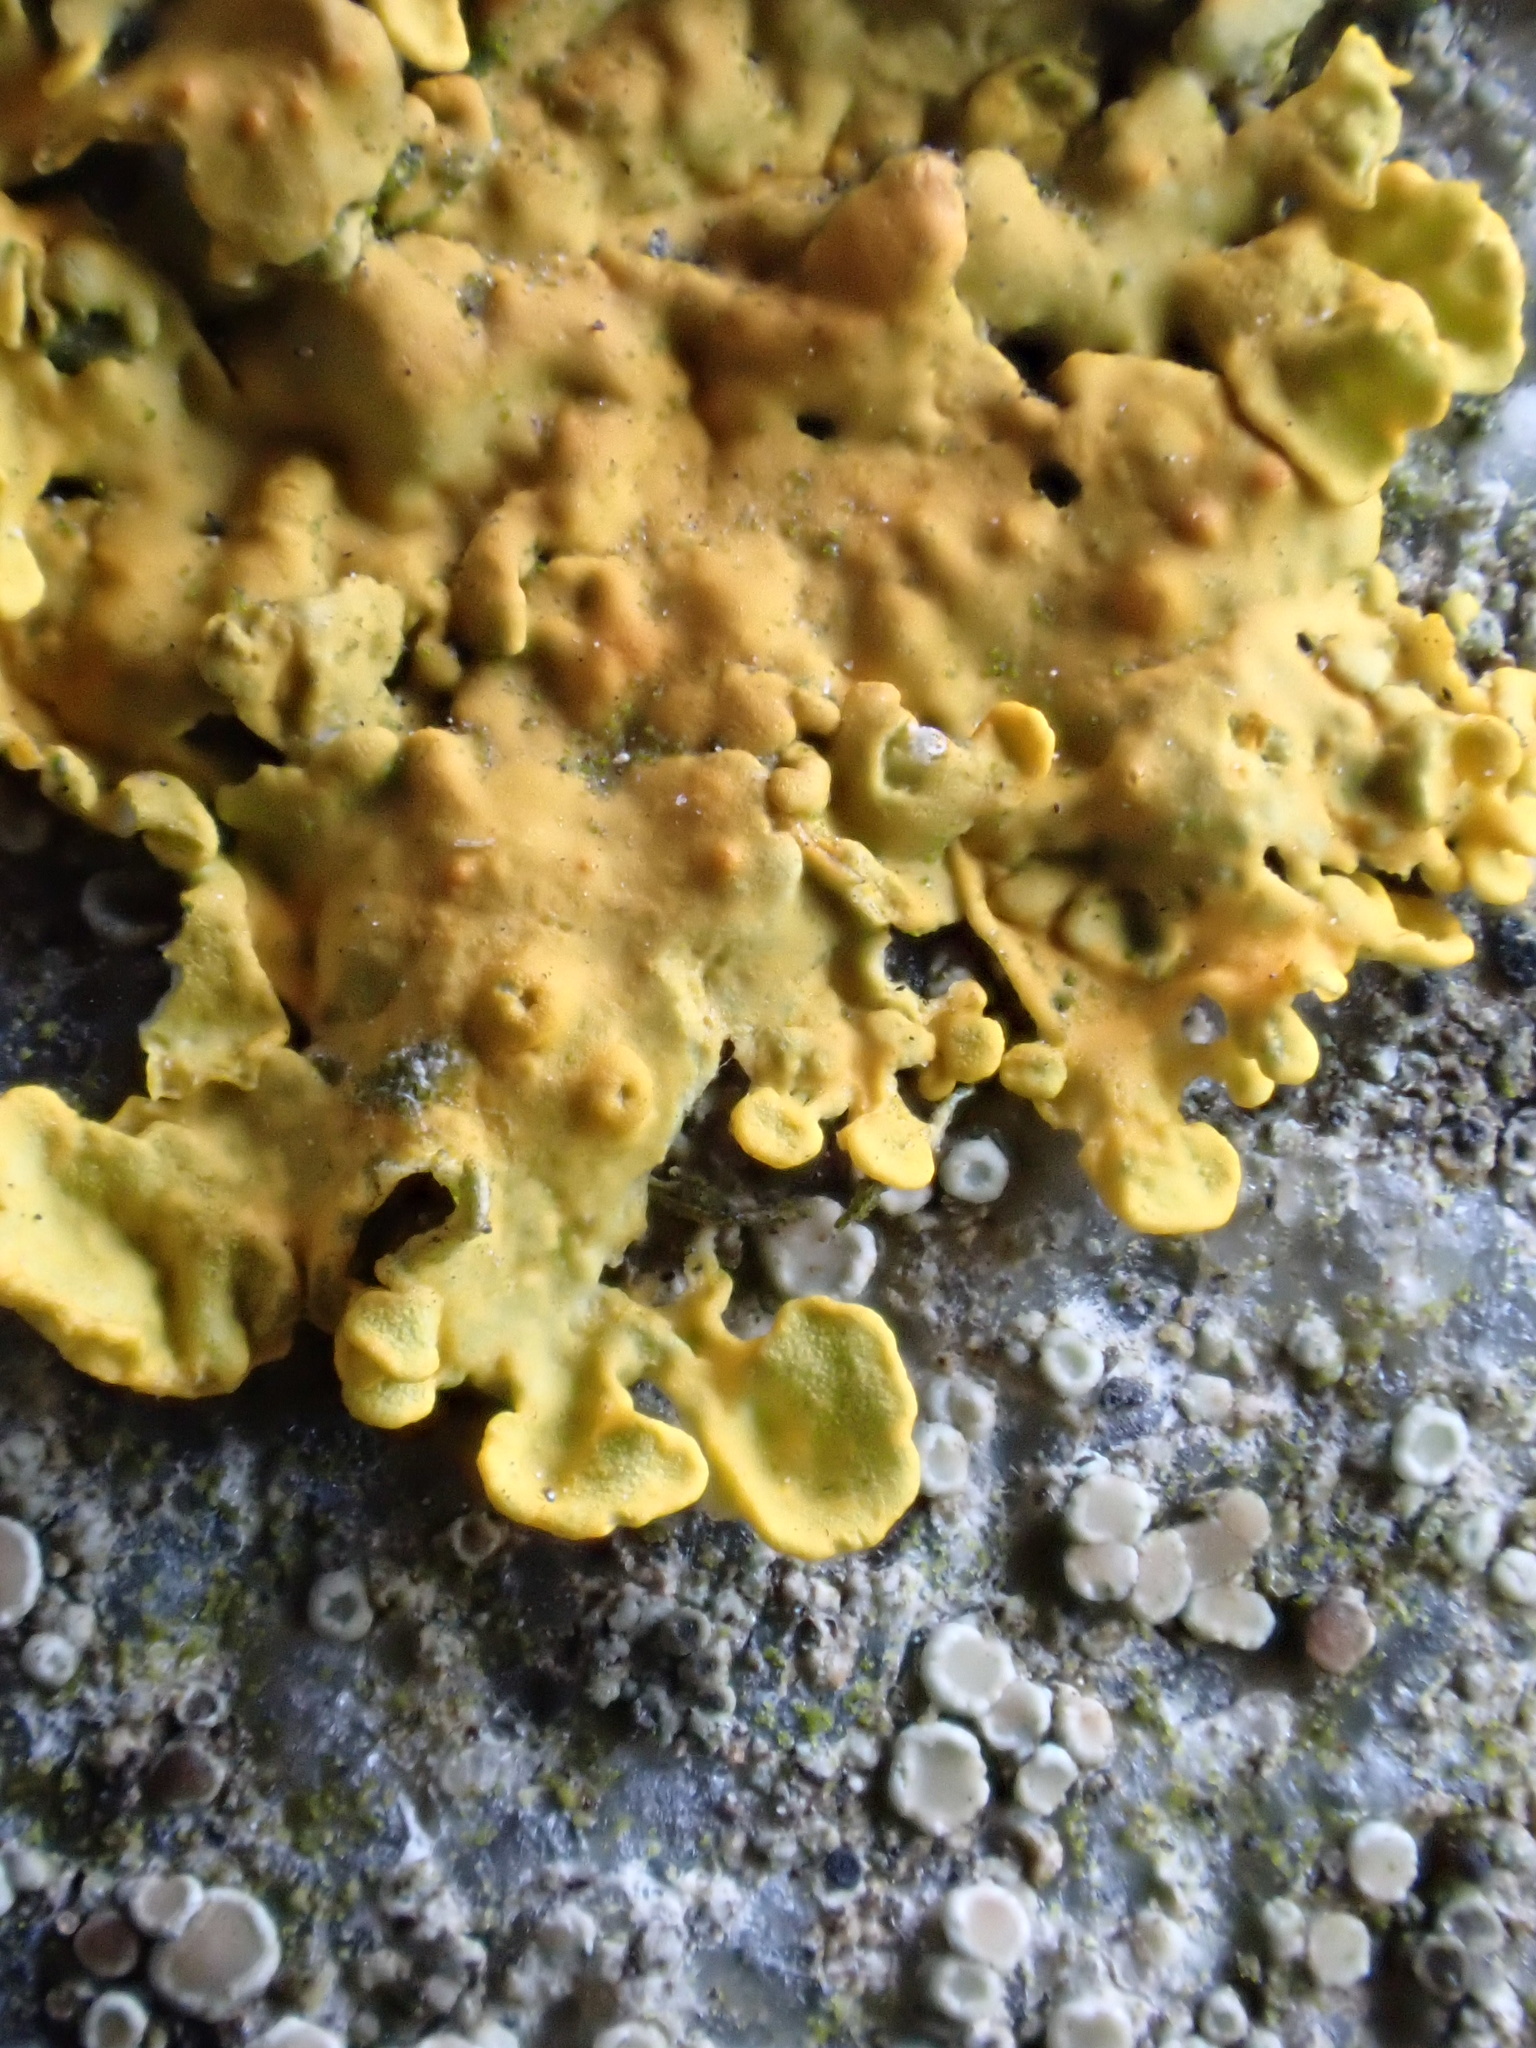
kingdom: Fungi
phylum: Ascomycota
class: Lecanoromycetes
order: Teloschistales
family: Teloschistaceae
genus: Xanthoria
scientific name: Xanthoria parietina
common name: Common orange lichen
